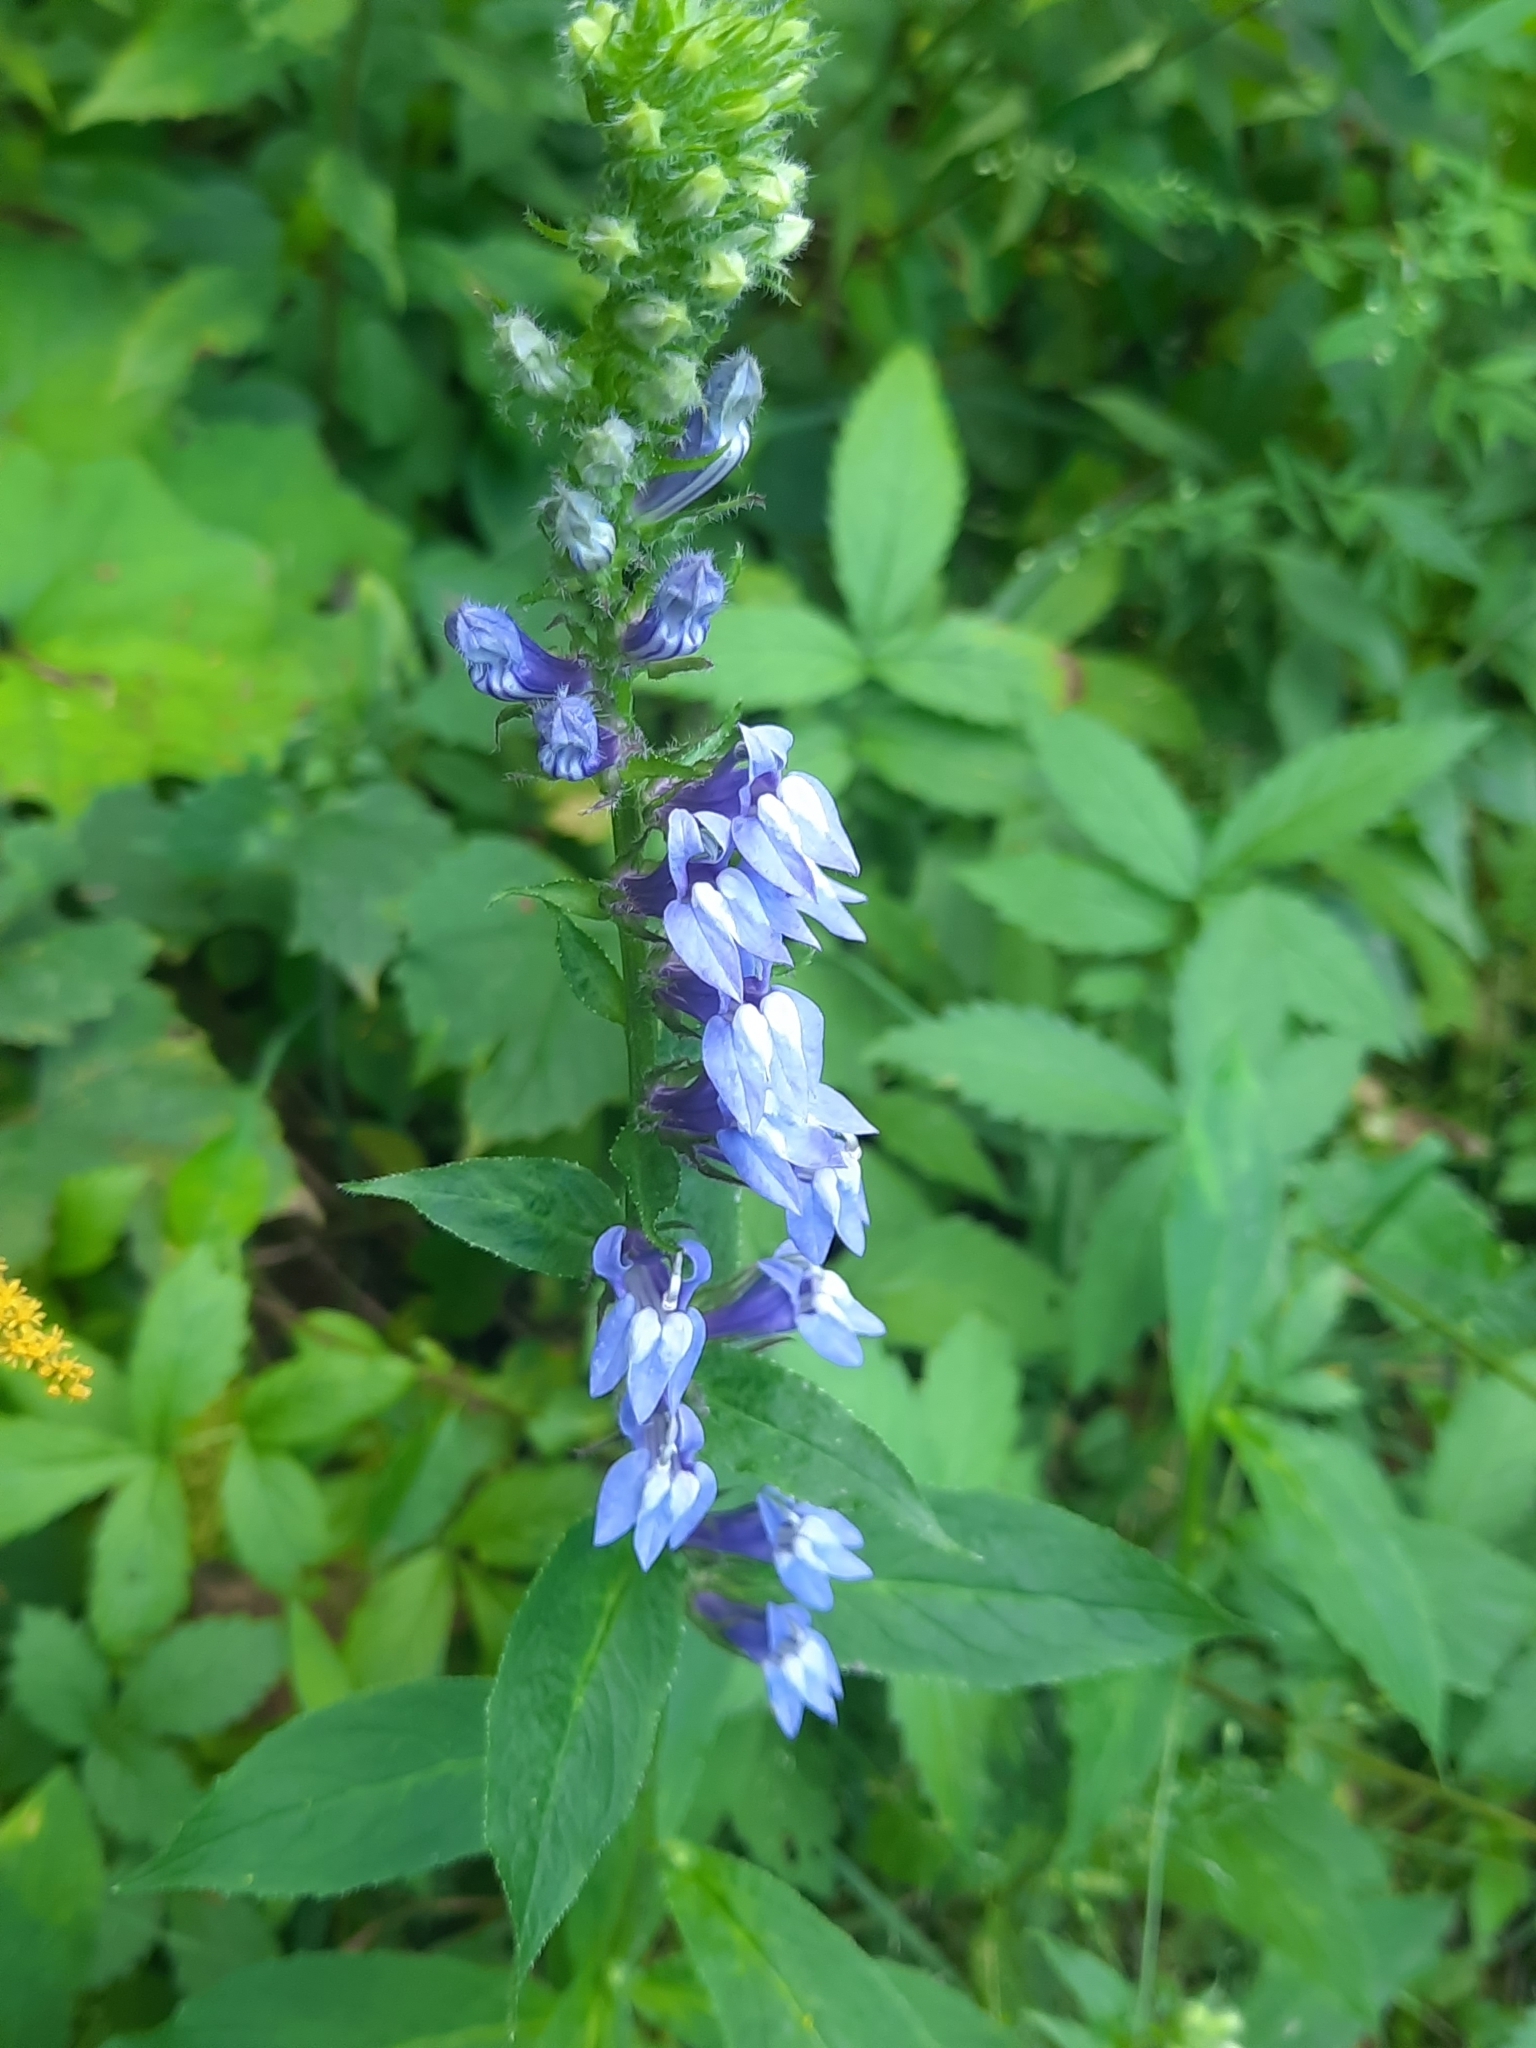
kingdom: Plantae
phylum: Tracheophyta
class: Magnoliopsida
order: Asterales
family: Campanulaceae
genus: Lobelia
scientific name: Lobelia siphilitica
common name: Great lobelia
